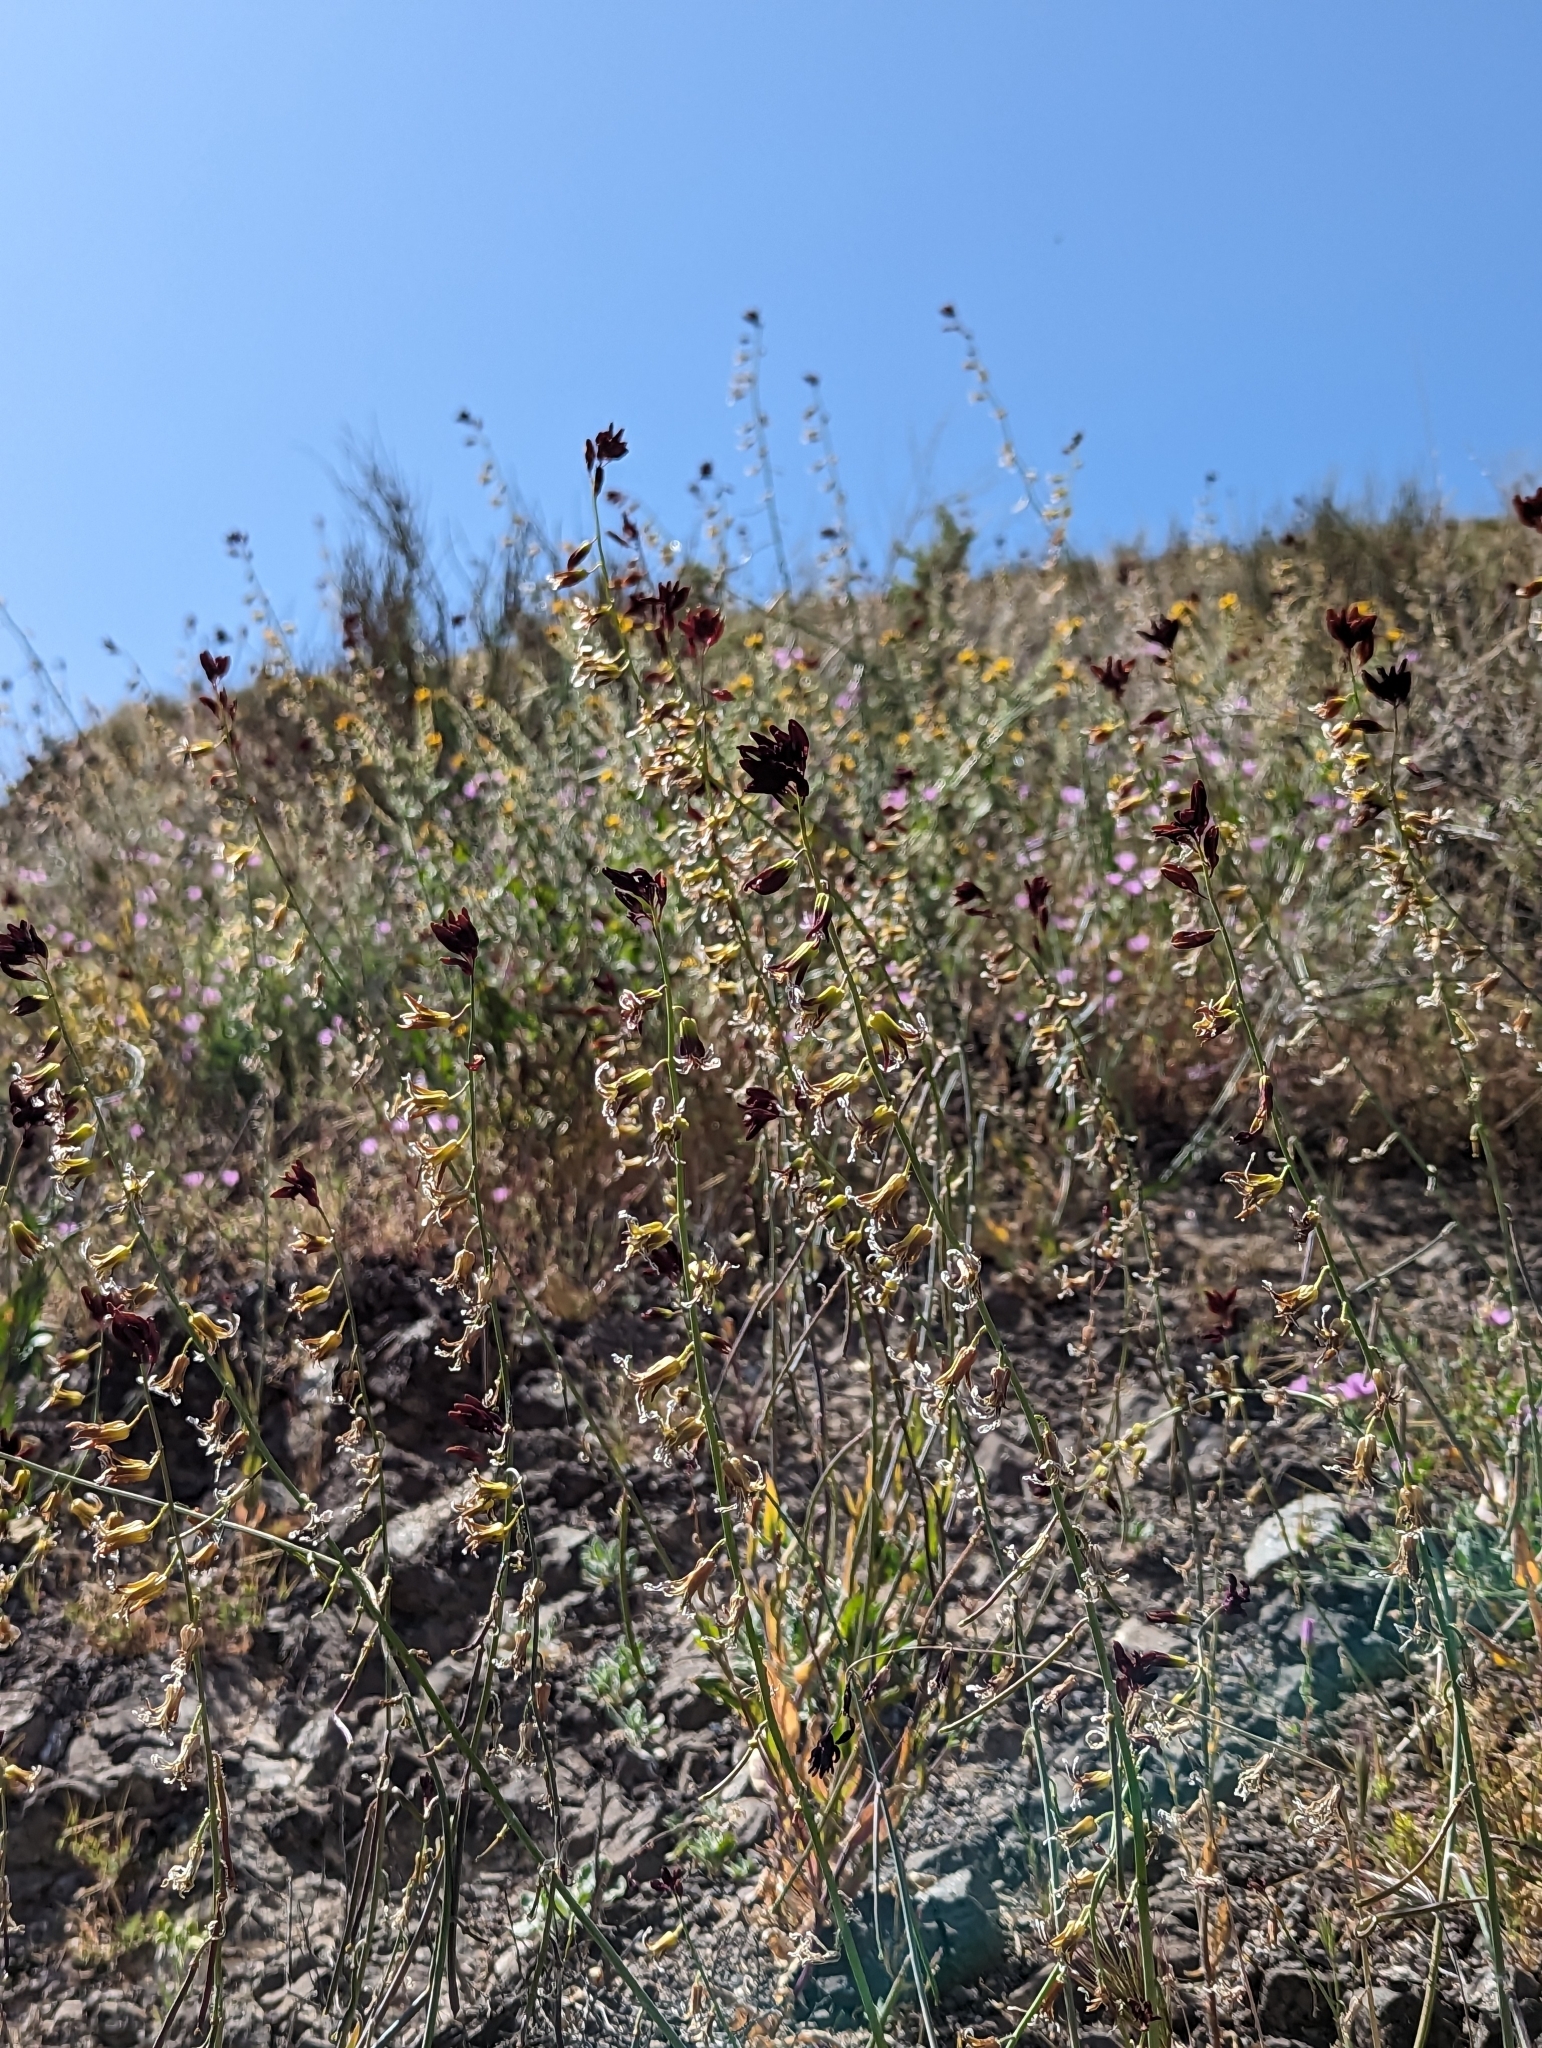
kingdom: Plantae
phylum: Tracheophyta
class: Magnoliopsida
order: Brassicales
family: Brassicaceae
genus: Streptanthus
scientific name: Streptanthus coulteri
